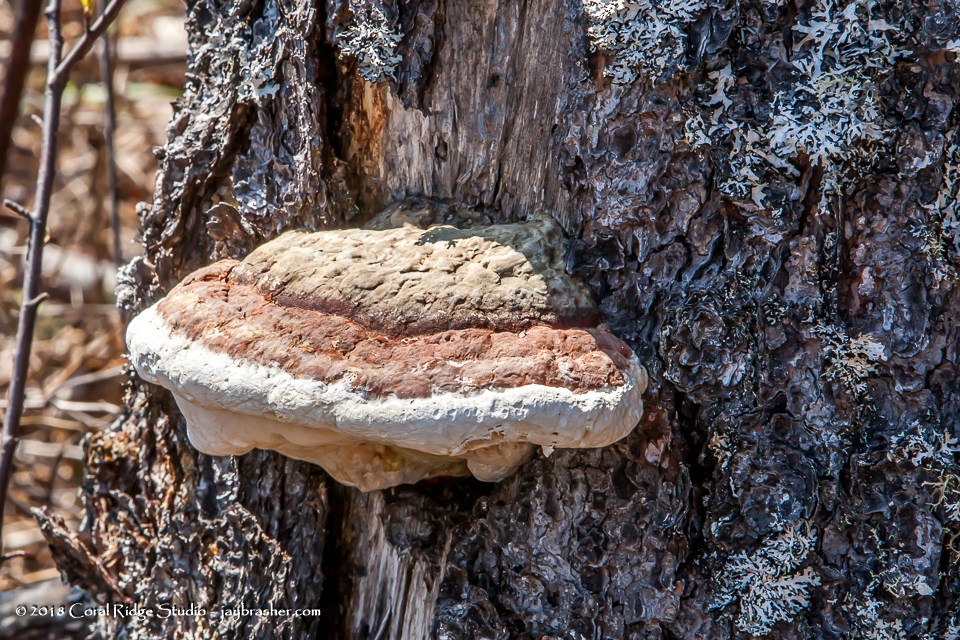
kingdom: Fungi
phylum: Basidiomycota
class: Agaricomycetes
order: Polyporales
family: Fomitopsidaceae
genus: Fomitopsis
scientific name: Fomitopsis mounceae
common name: Northern red belt
